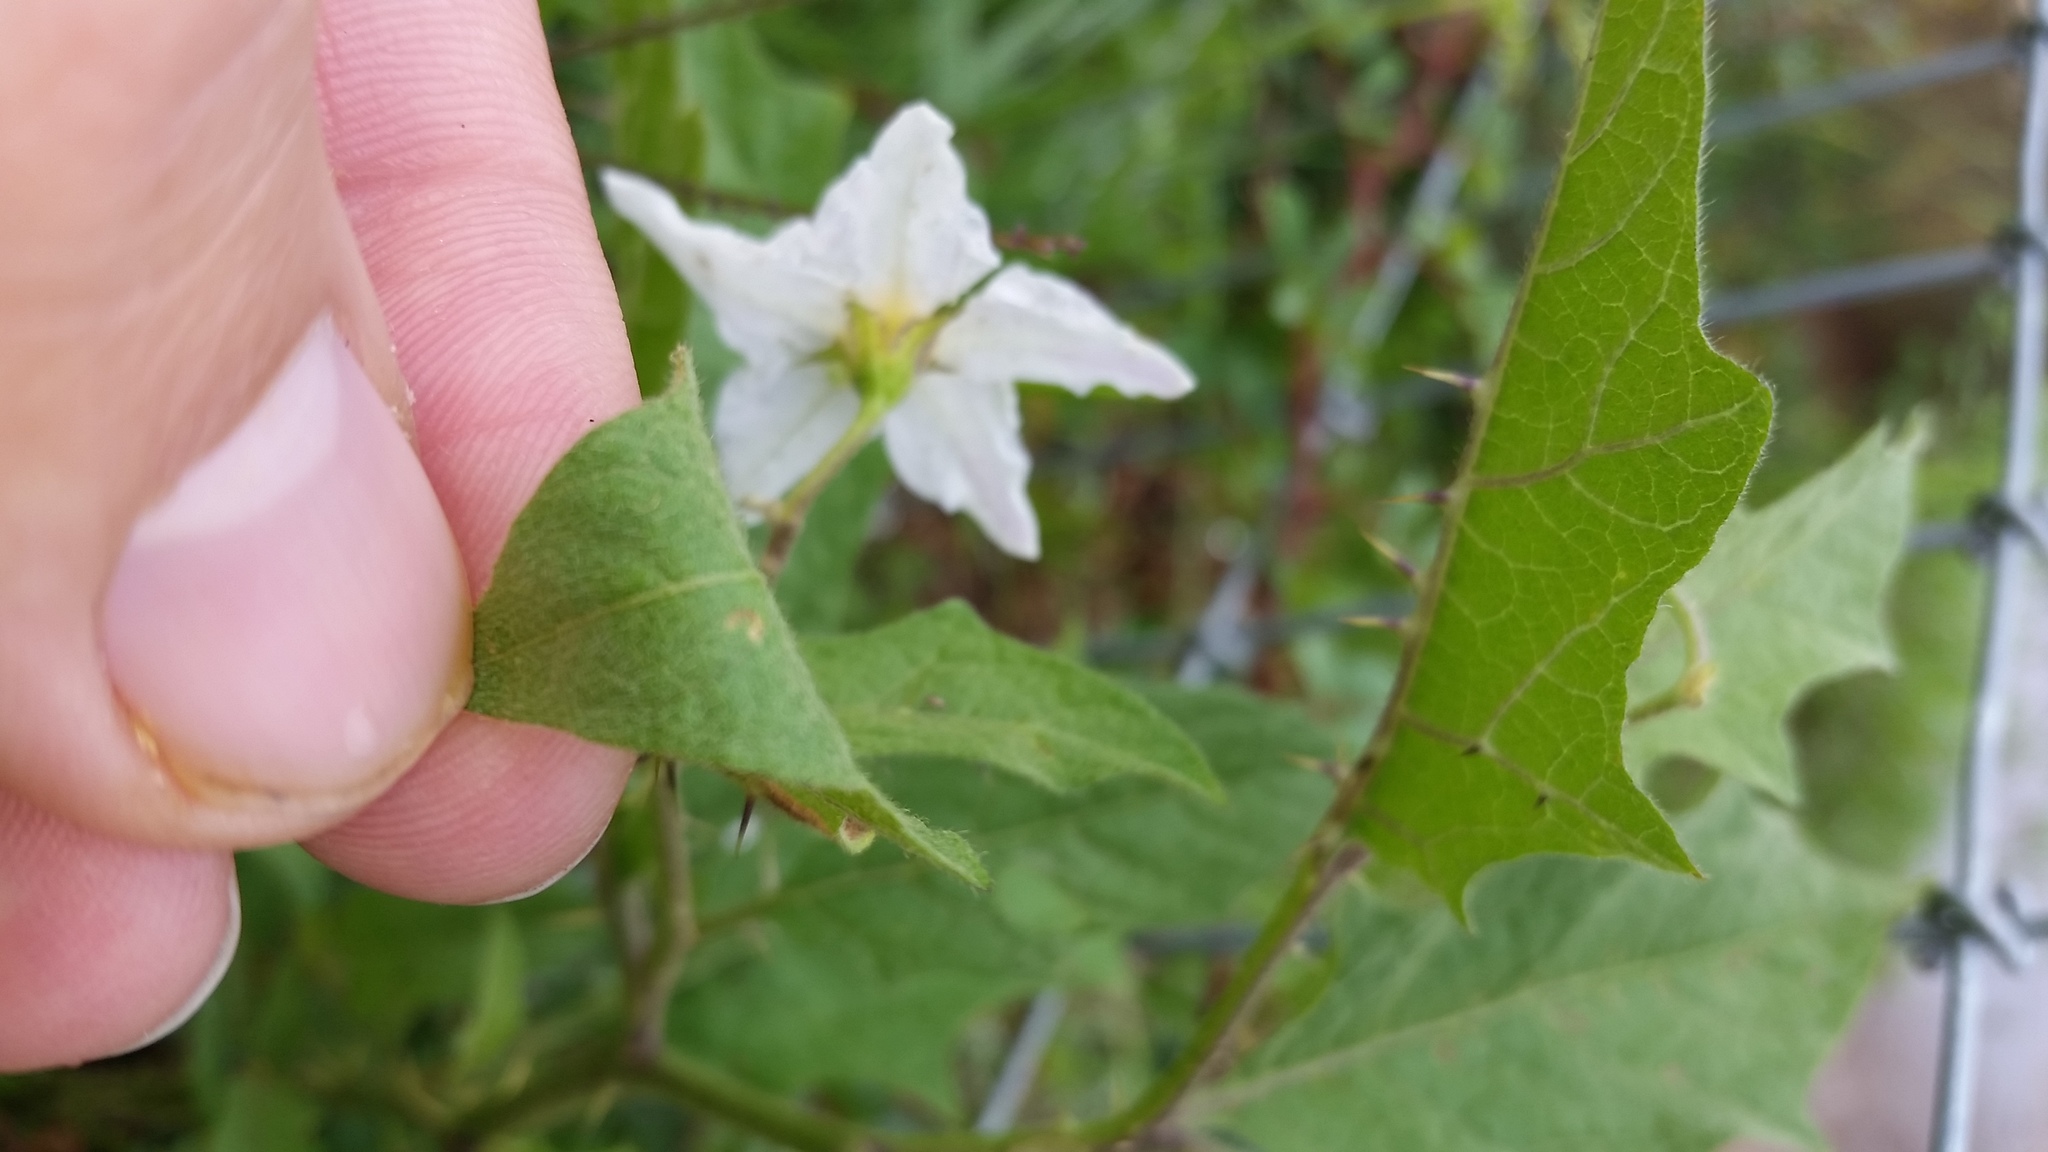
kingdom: Plantae
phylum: Tracheophyta
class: Magnoliopsida
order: Solanales
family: Solanaceae
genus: Solanum
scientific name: Solanum carolinense
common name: Horse-nettle
